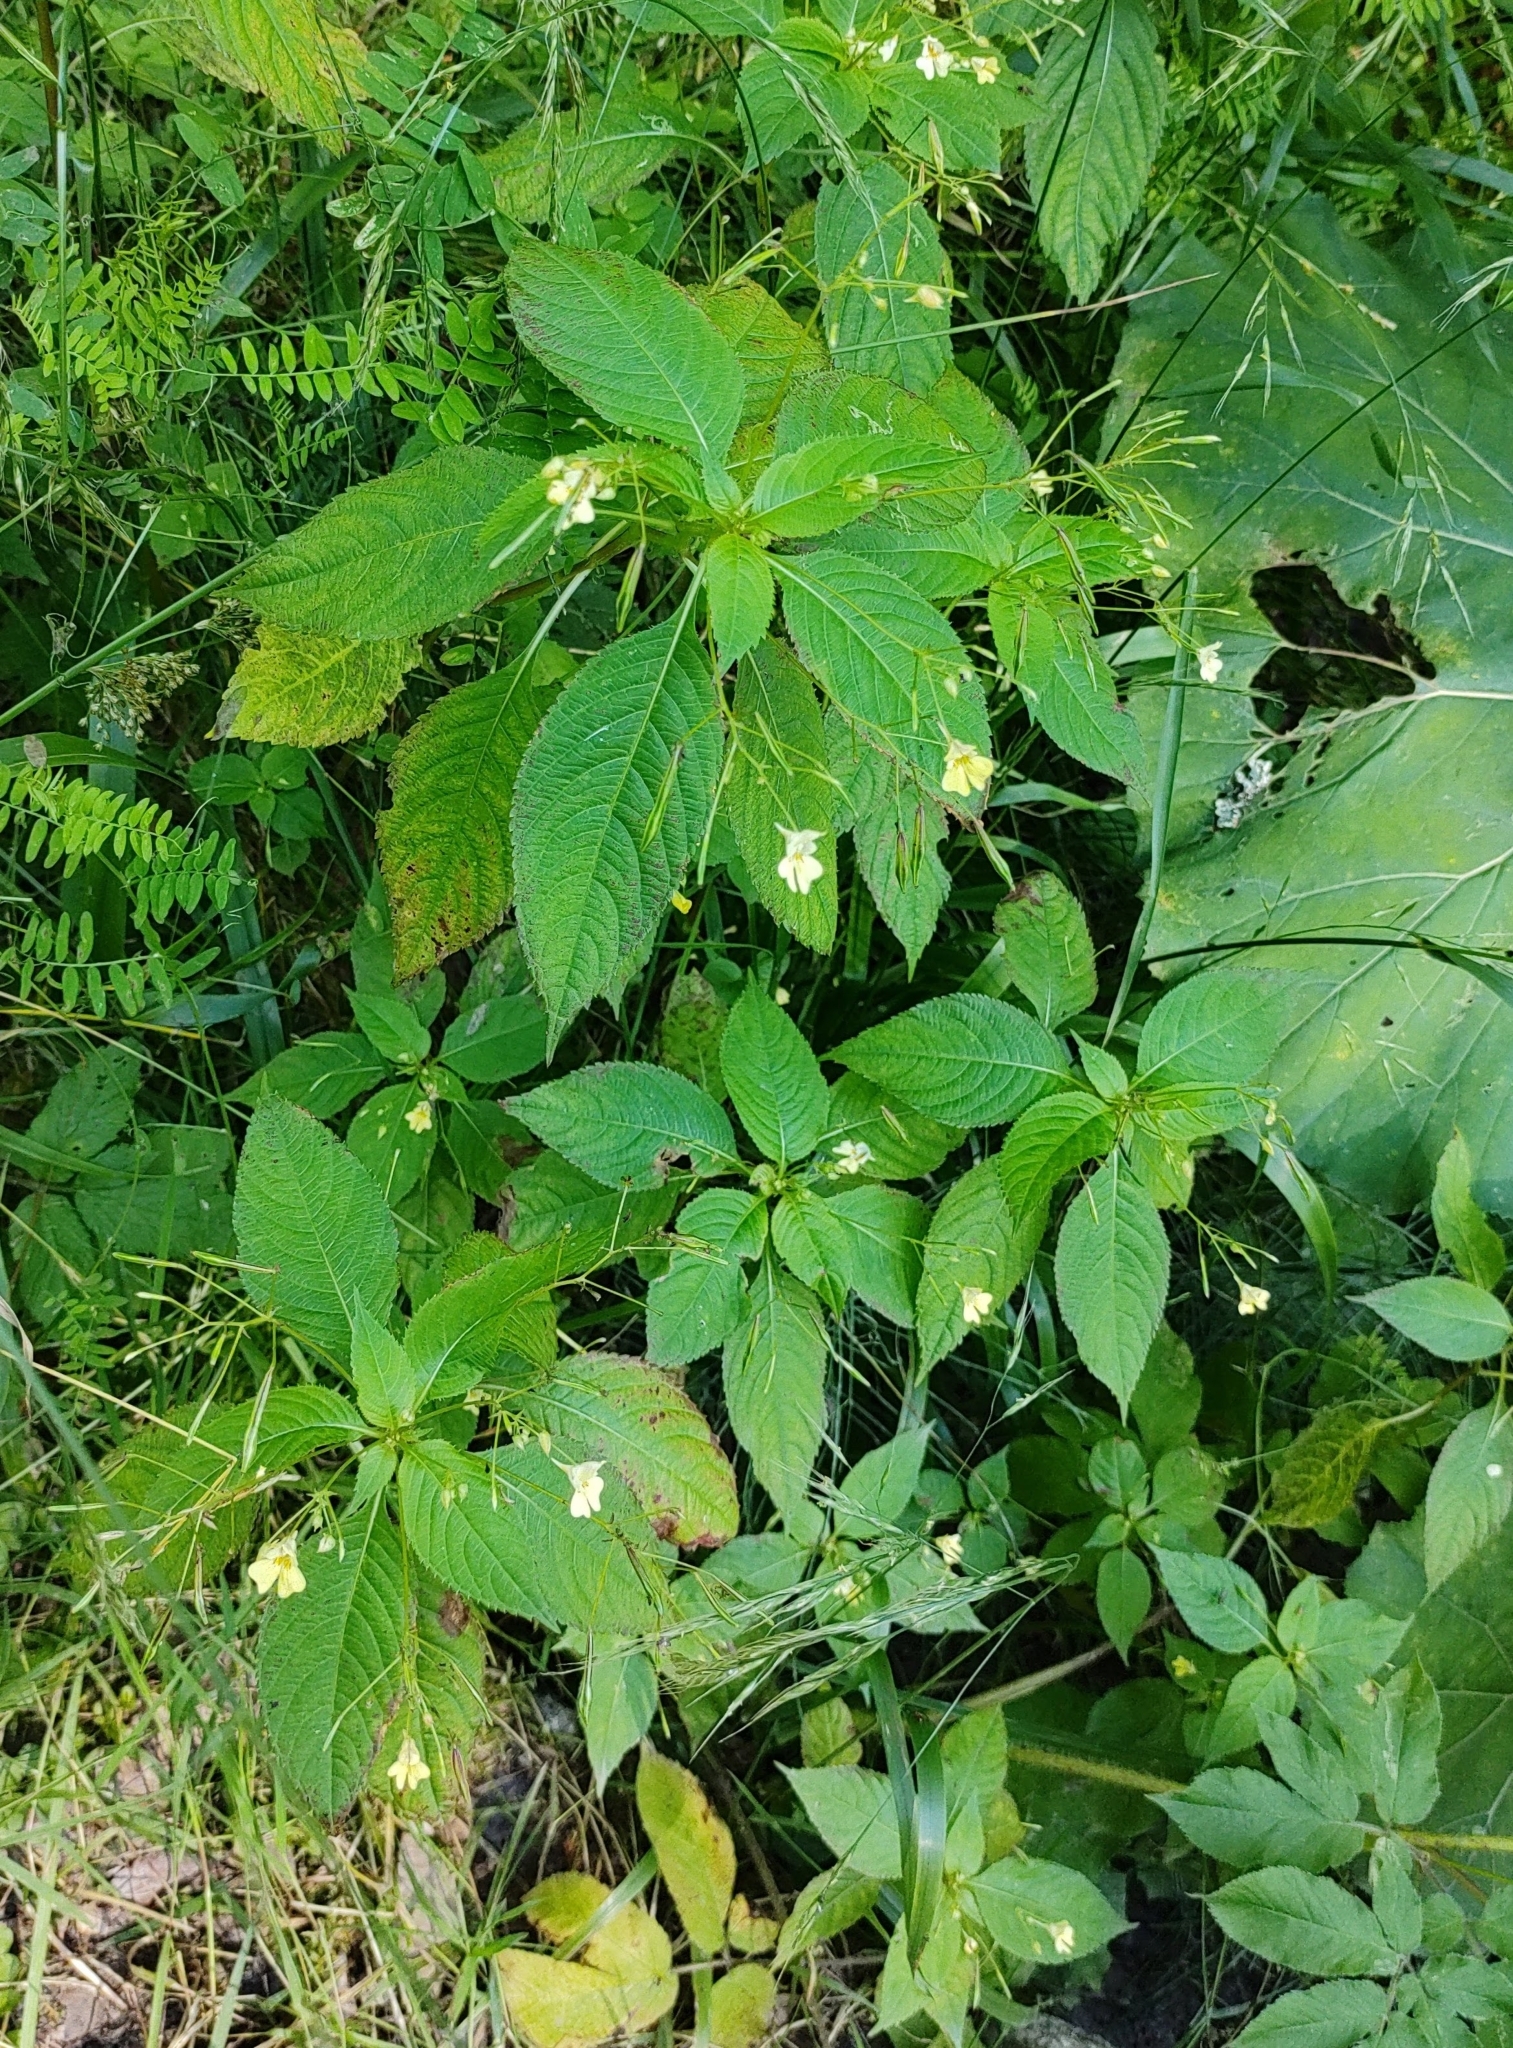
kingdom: Plantae
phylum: Tracheophyta
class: Magnoliopsida
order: Ericales
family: Balsaminaceae
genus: Impatiens
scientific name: Impatiens parviflora
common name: Small balsam
